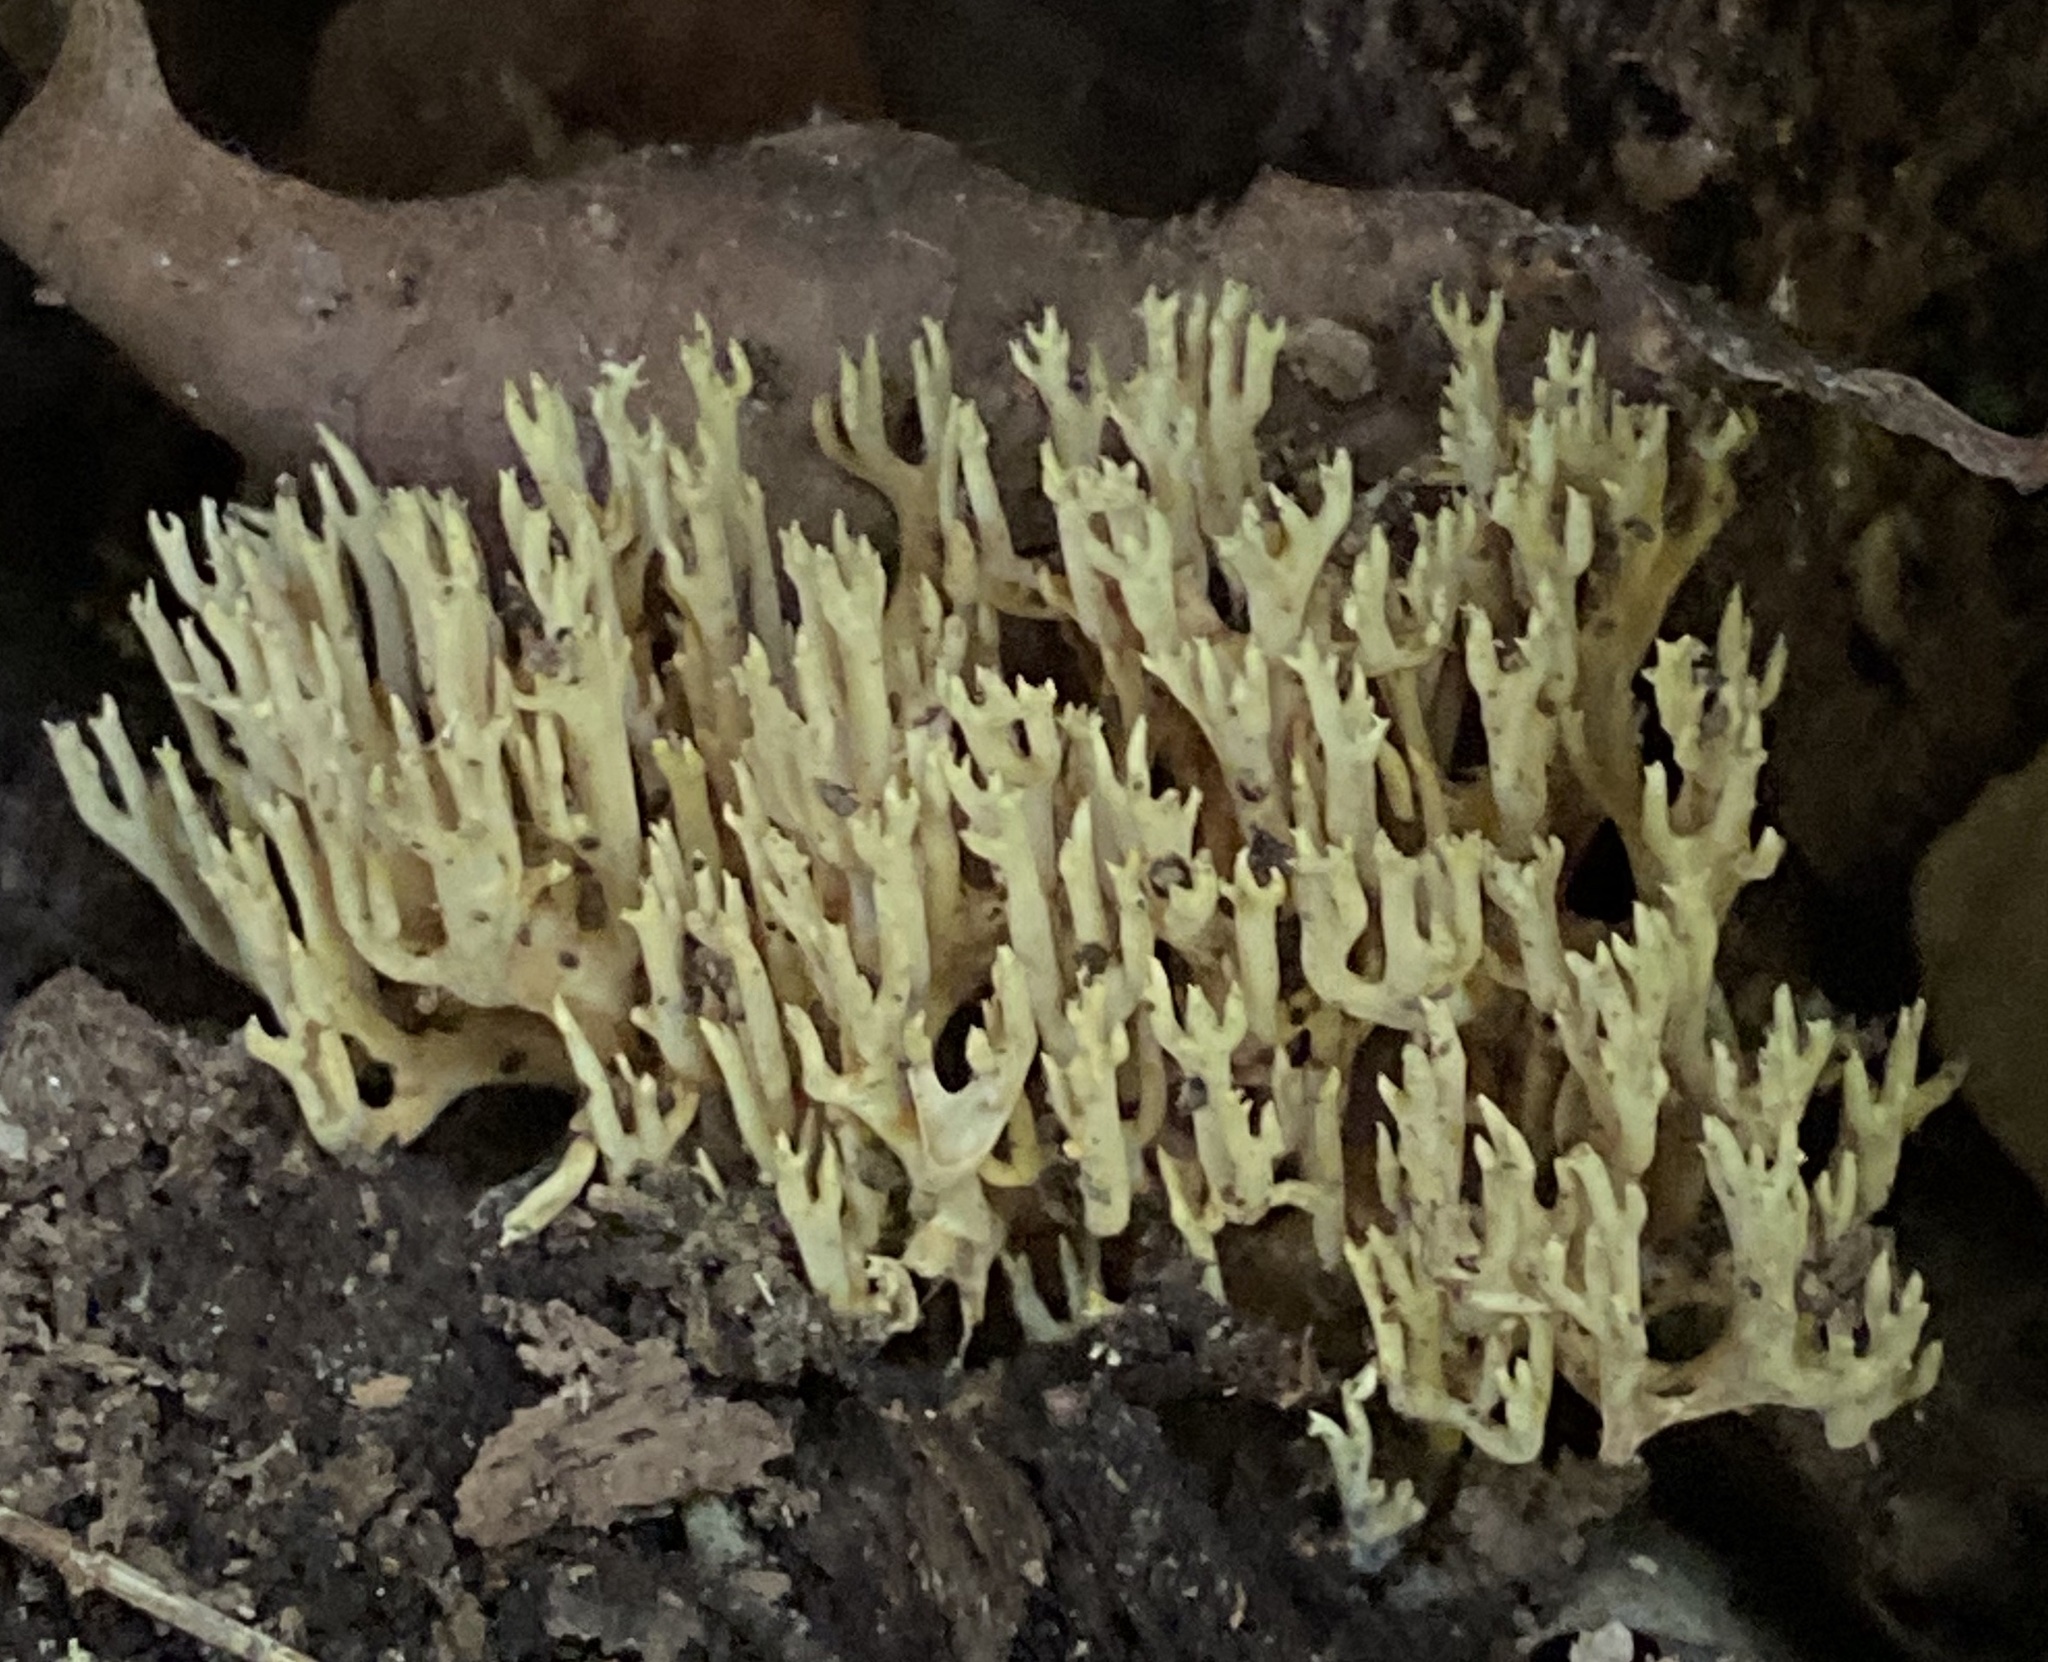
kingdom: Fungi
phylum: Basidiomycota
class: Agaricomycetes
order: Gomphales
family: Gomphaceae
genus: Ramaria
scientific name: Ramaria stricta
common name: Upright coral
